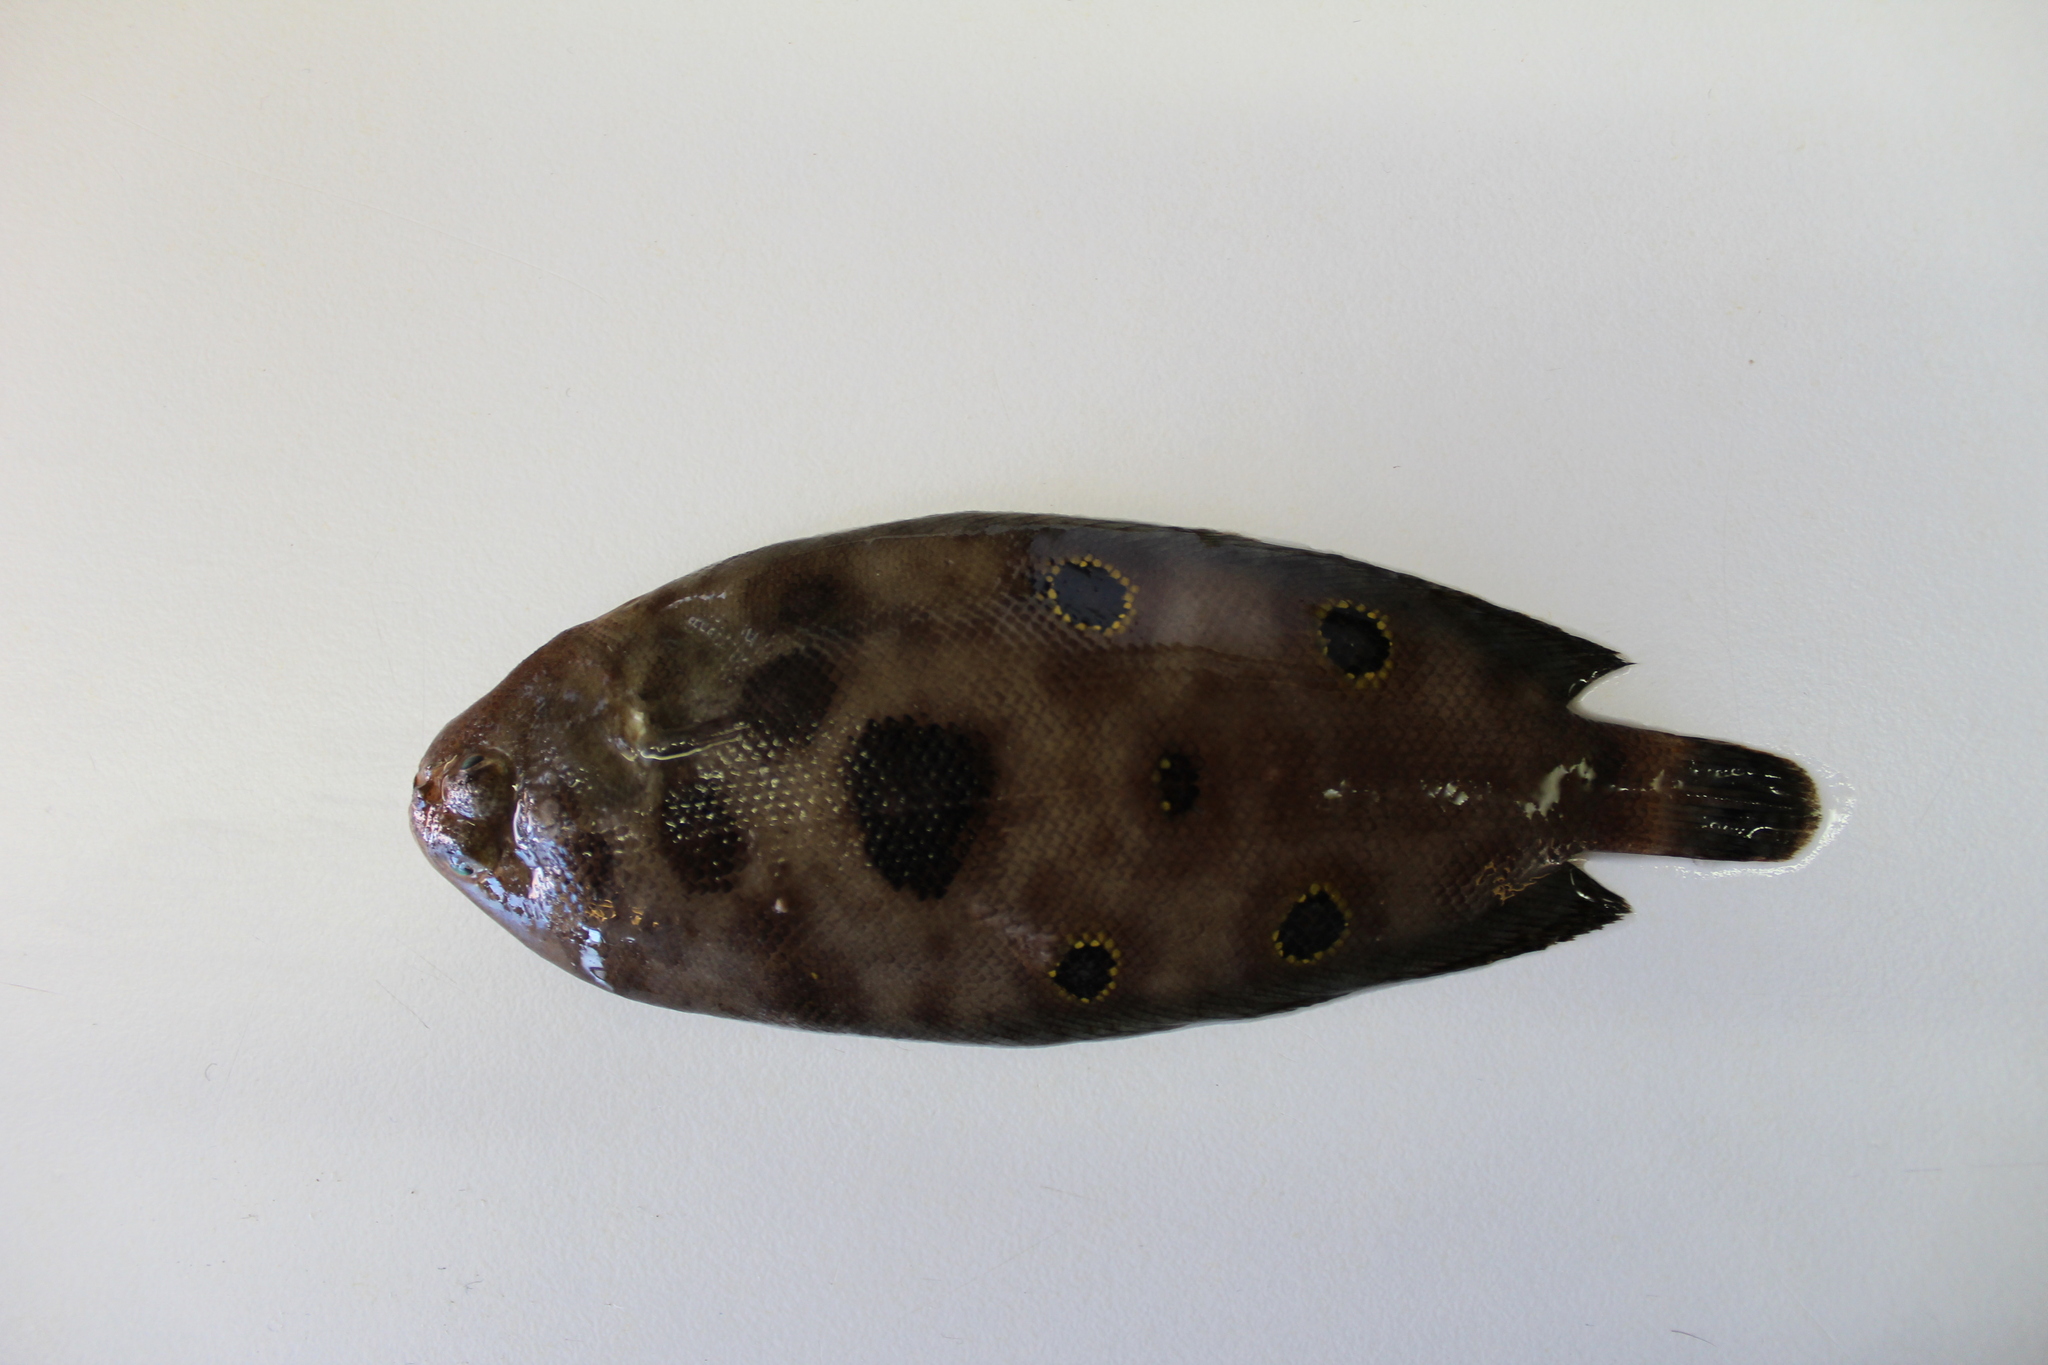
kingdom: Animalia
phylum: Chordata
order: Pleuronectiformes
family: Soleidae
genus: Microchirus
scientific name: Microchirus ocellatus
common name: Eyed sole
